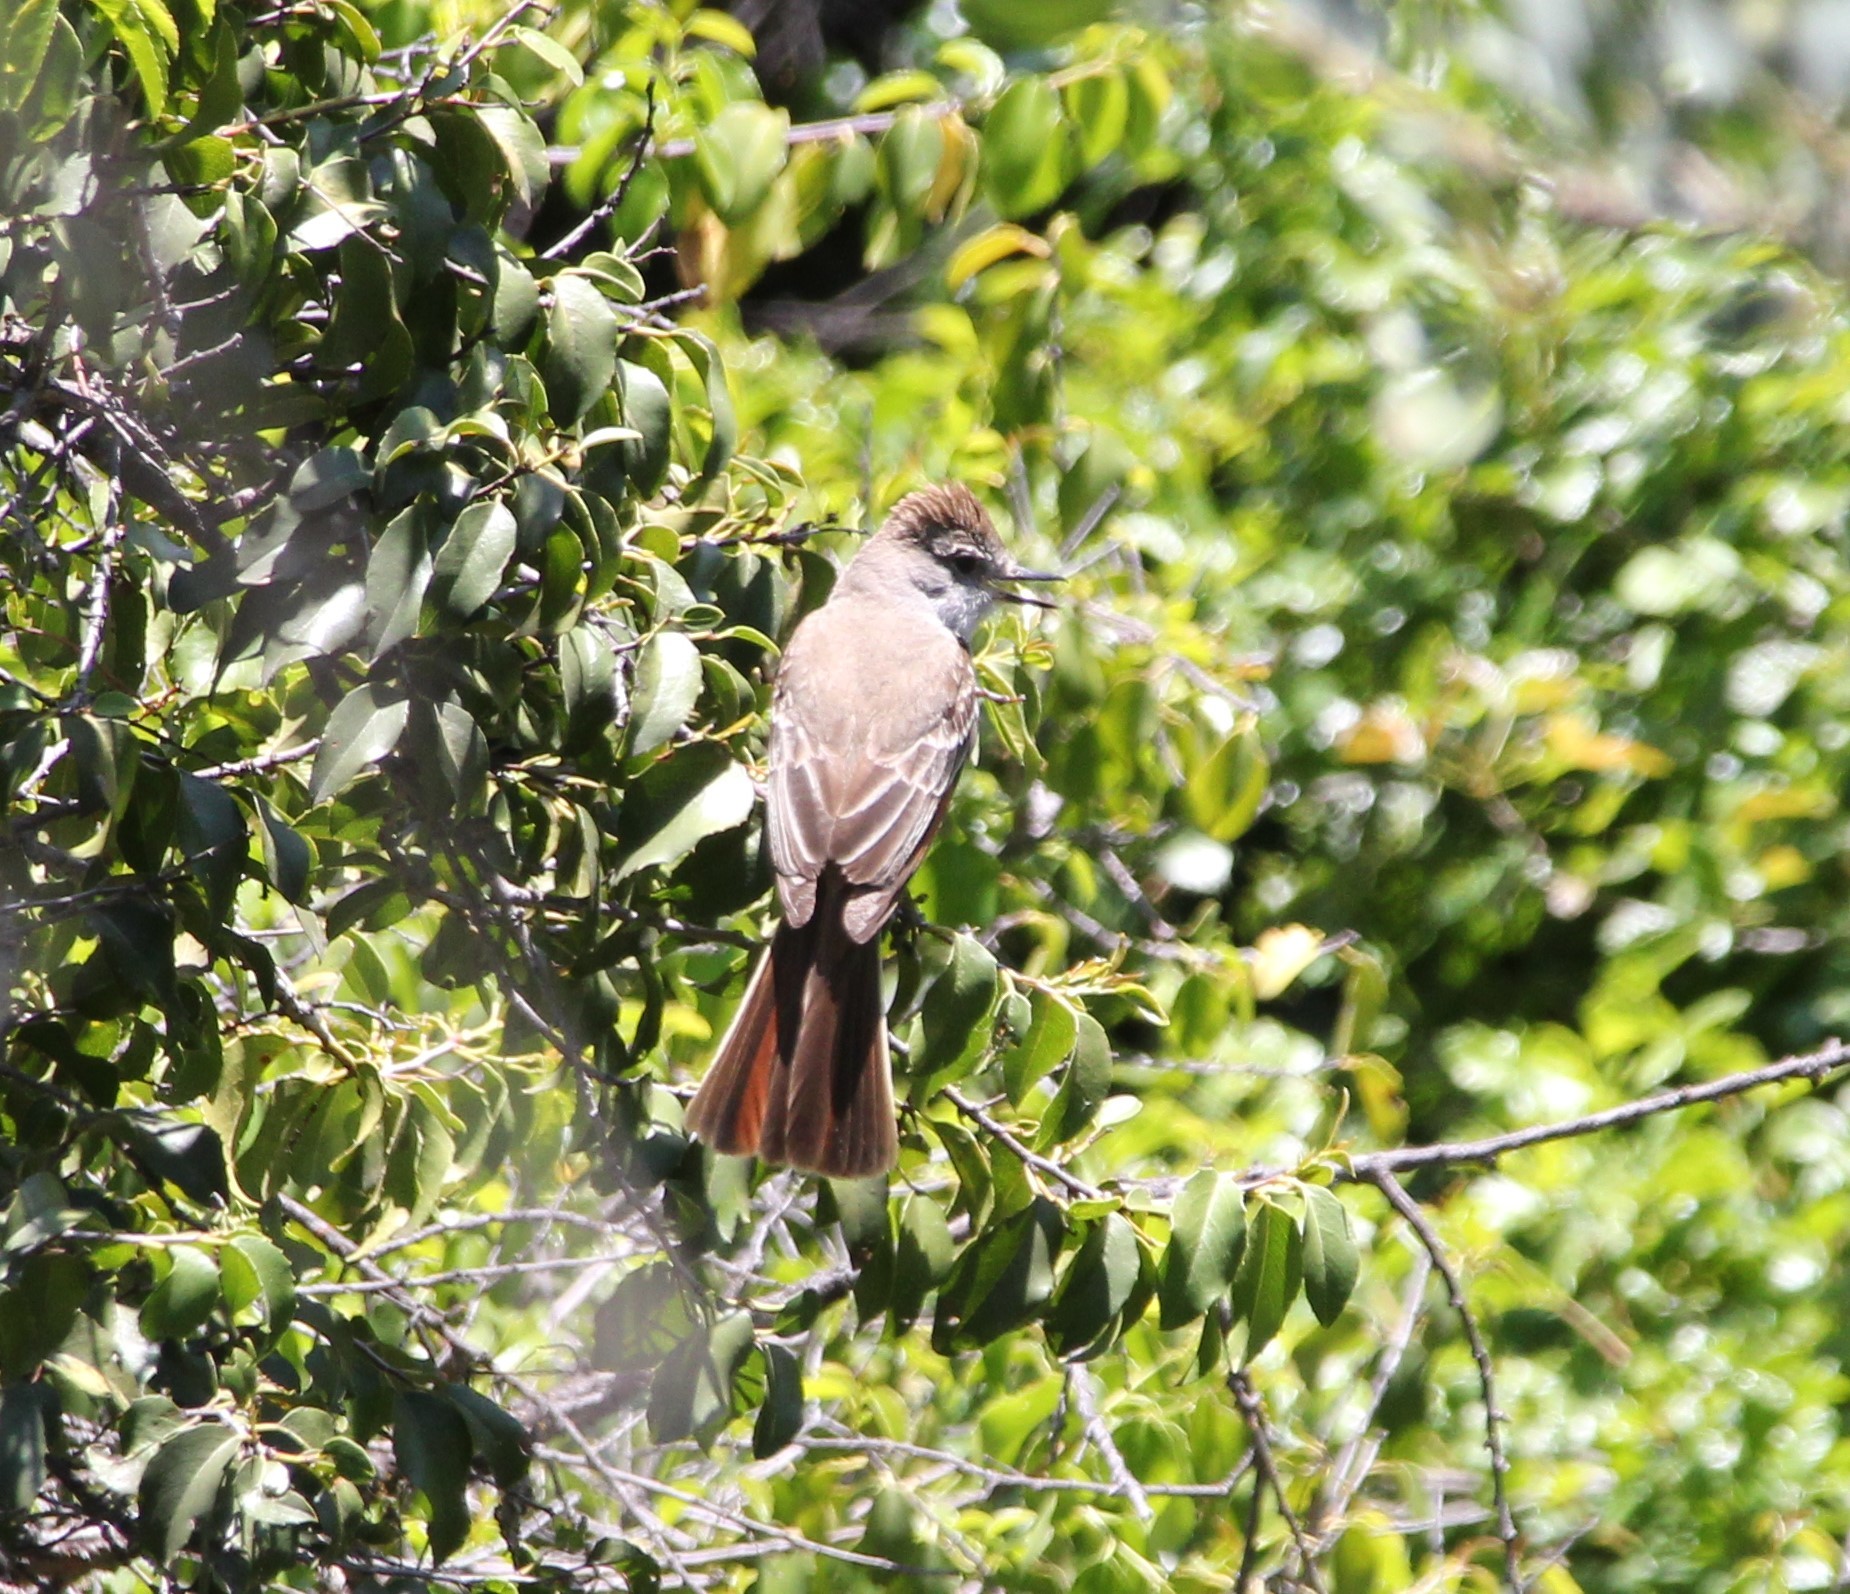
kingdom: Animalia
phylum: Chordata
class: Aves
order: Passeriformes
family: Tyrannidae
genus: Myiarchus
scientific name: Myiarchus cinerascens
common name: Ash-throated flycatcher
